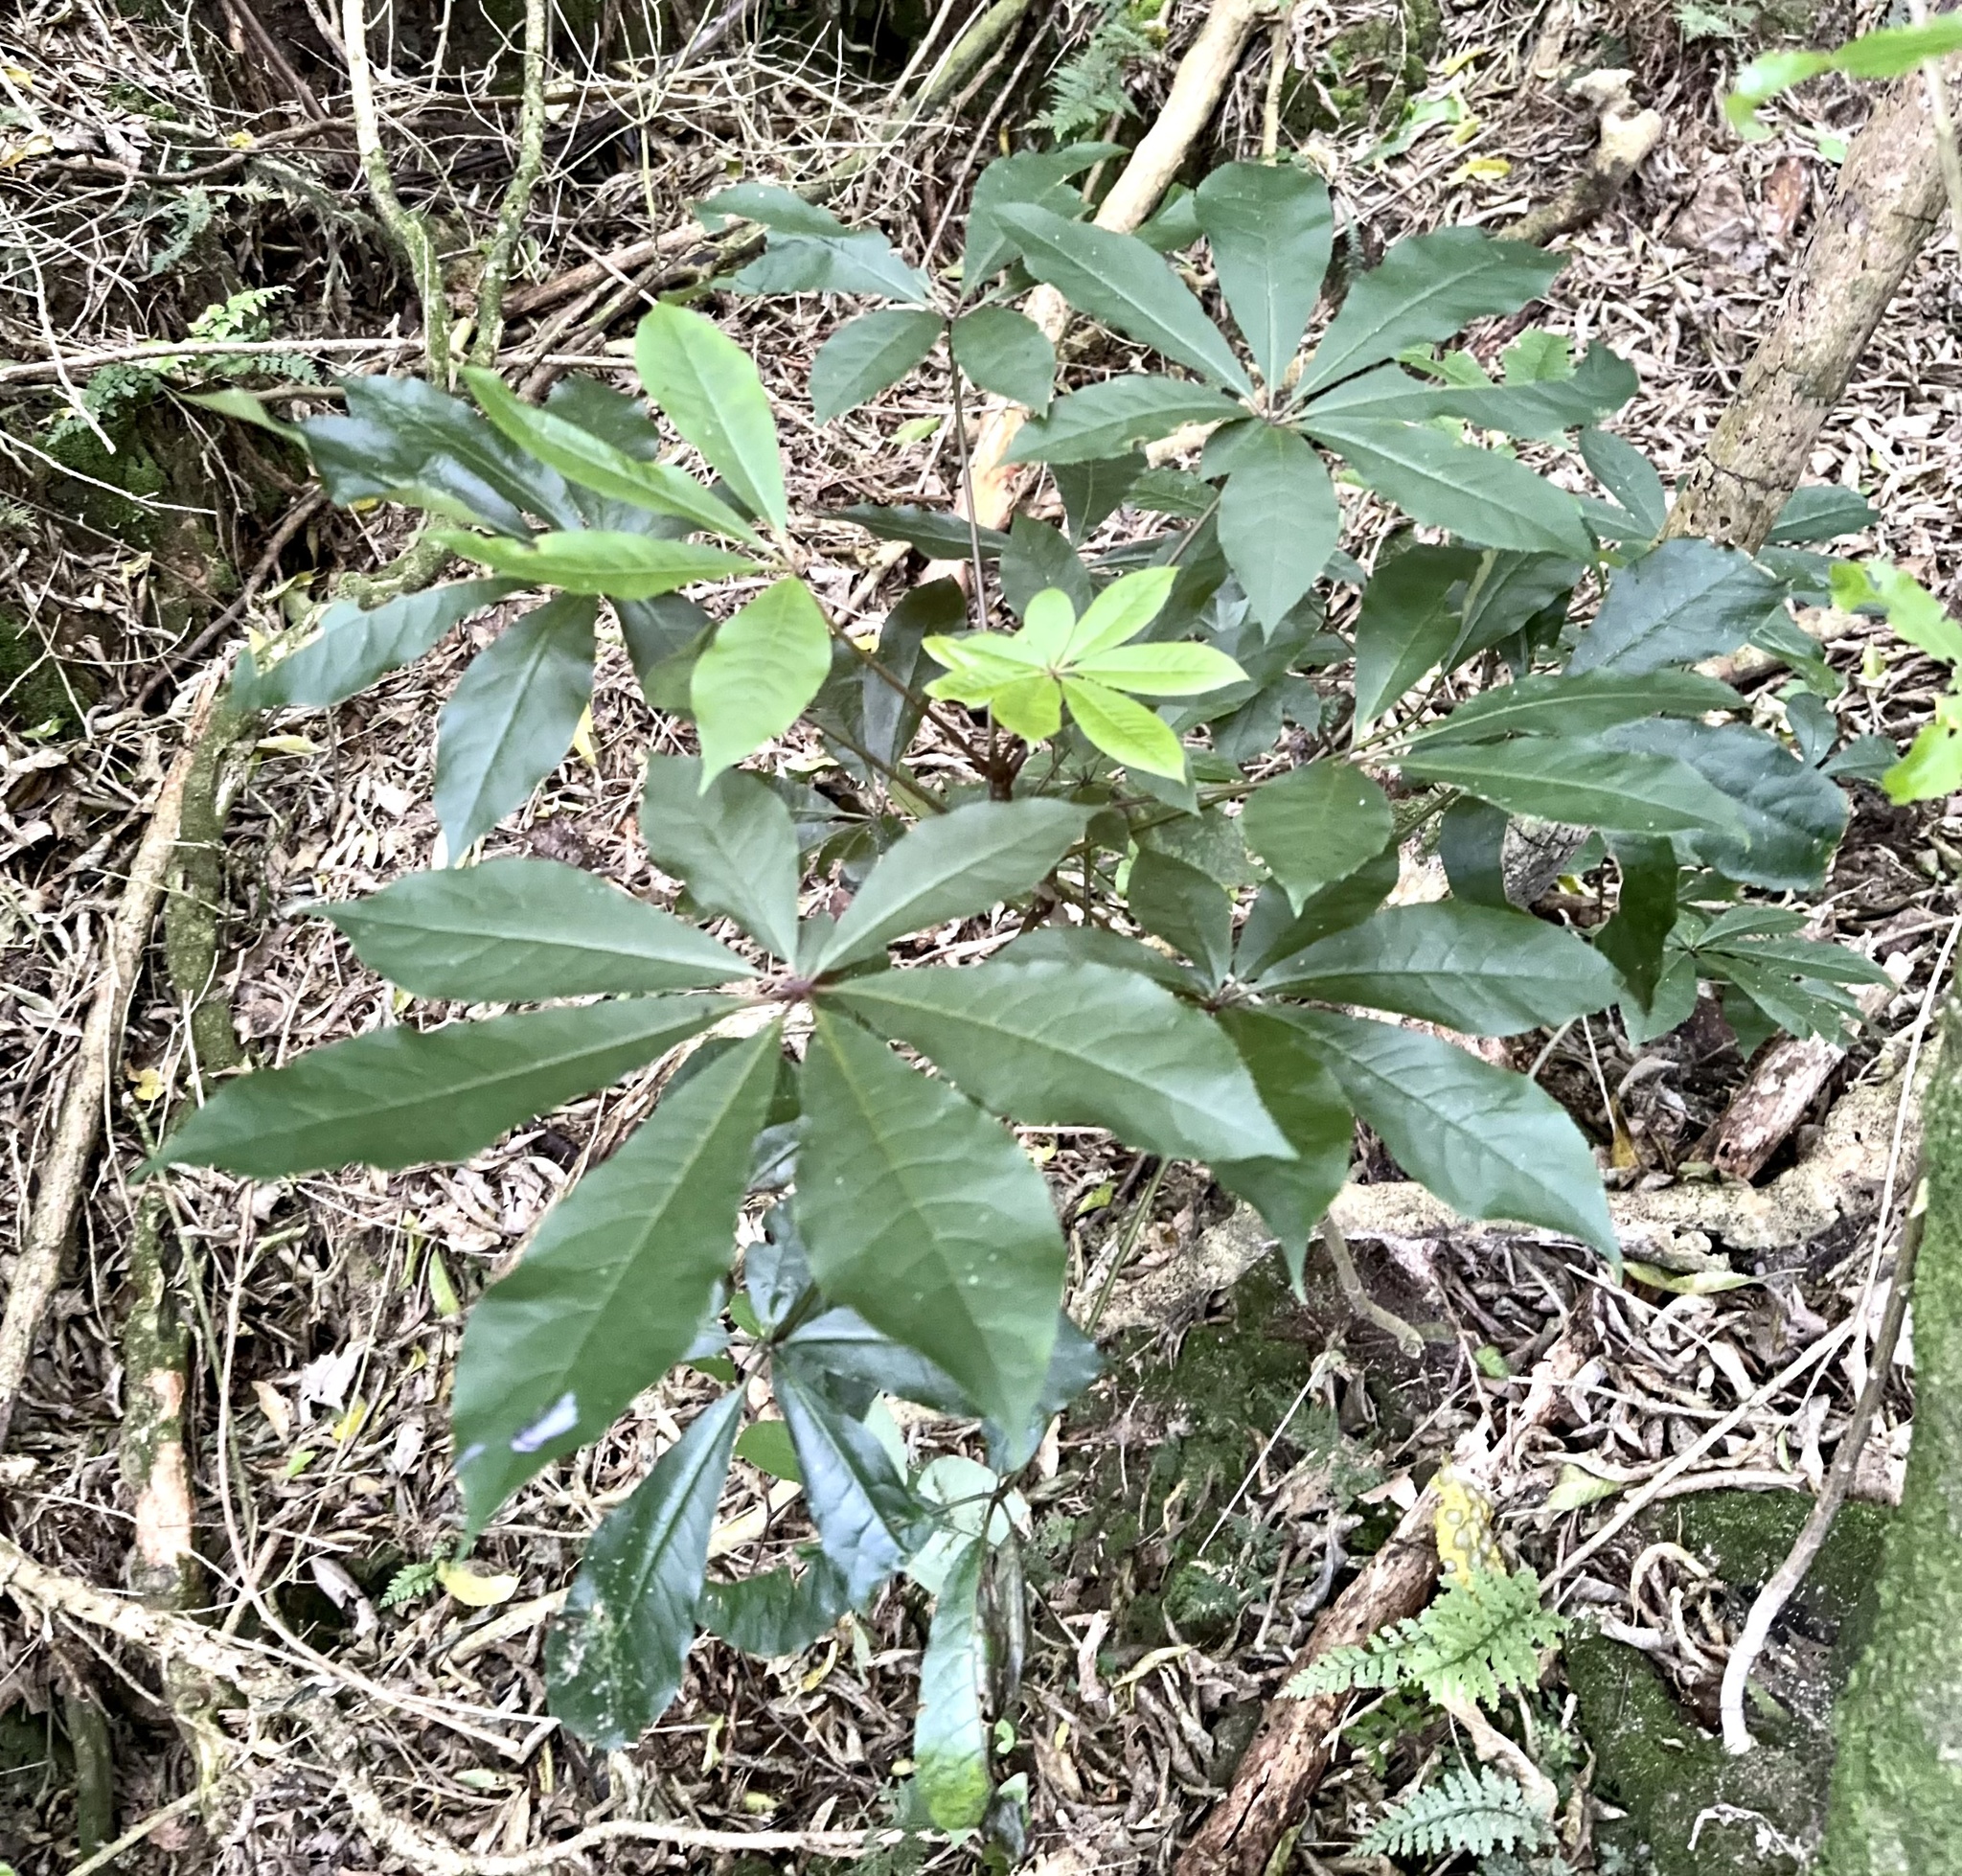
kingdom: Plantae
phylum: Tracheophyta
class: Magnoliopsida
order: Apiales
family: Araliaceae
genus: Schefflera
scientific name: Schefflera digitata
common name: Pate
